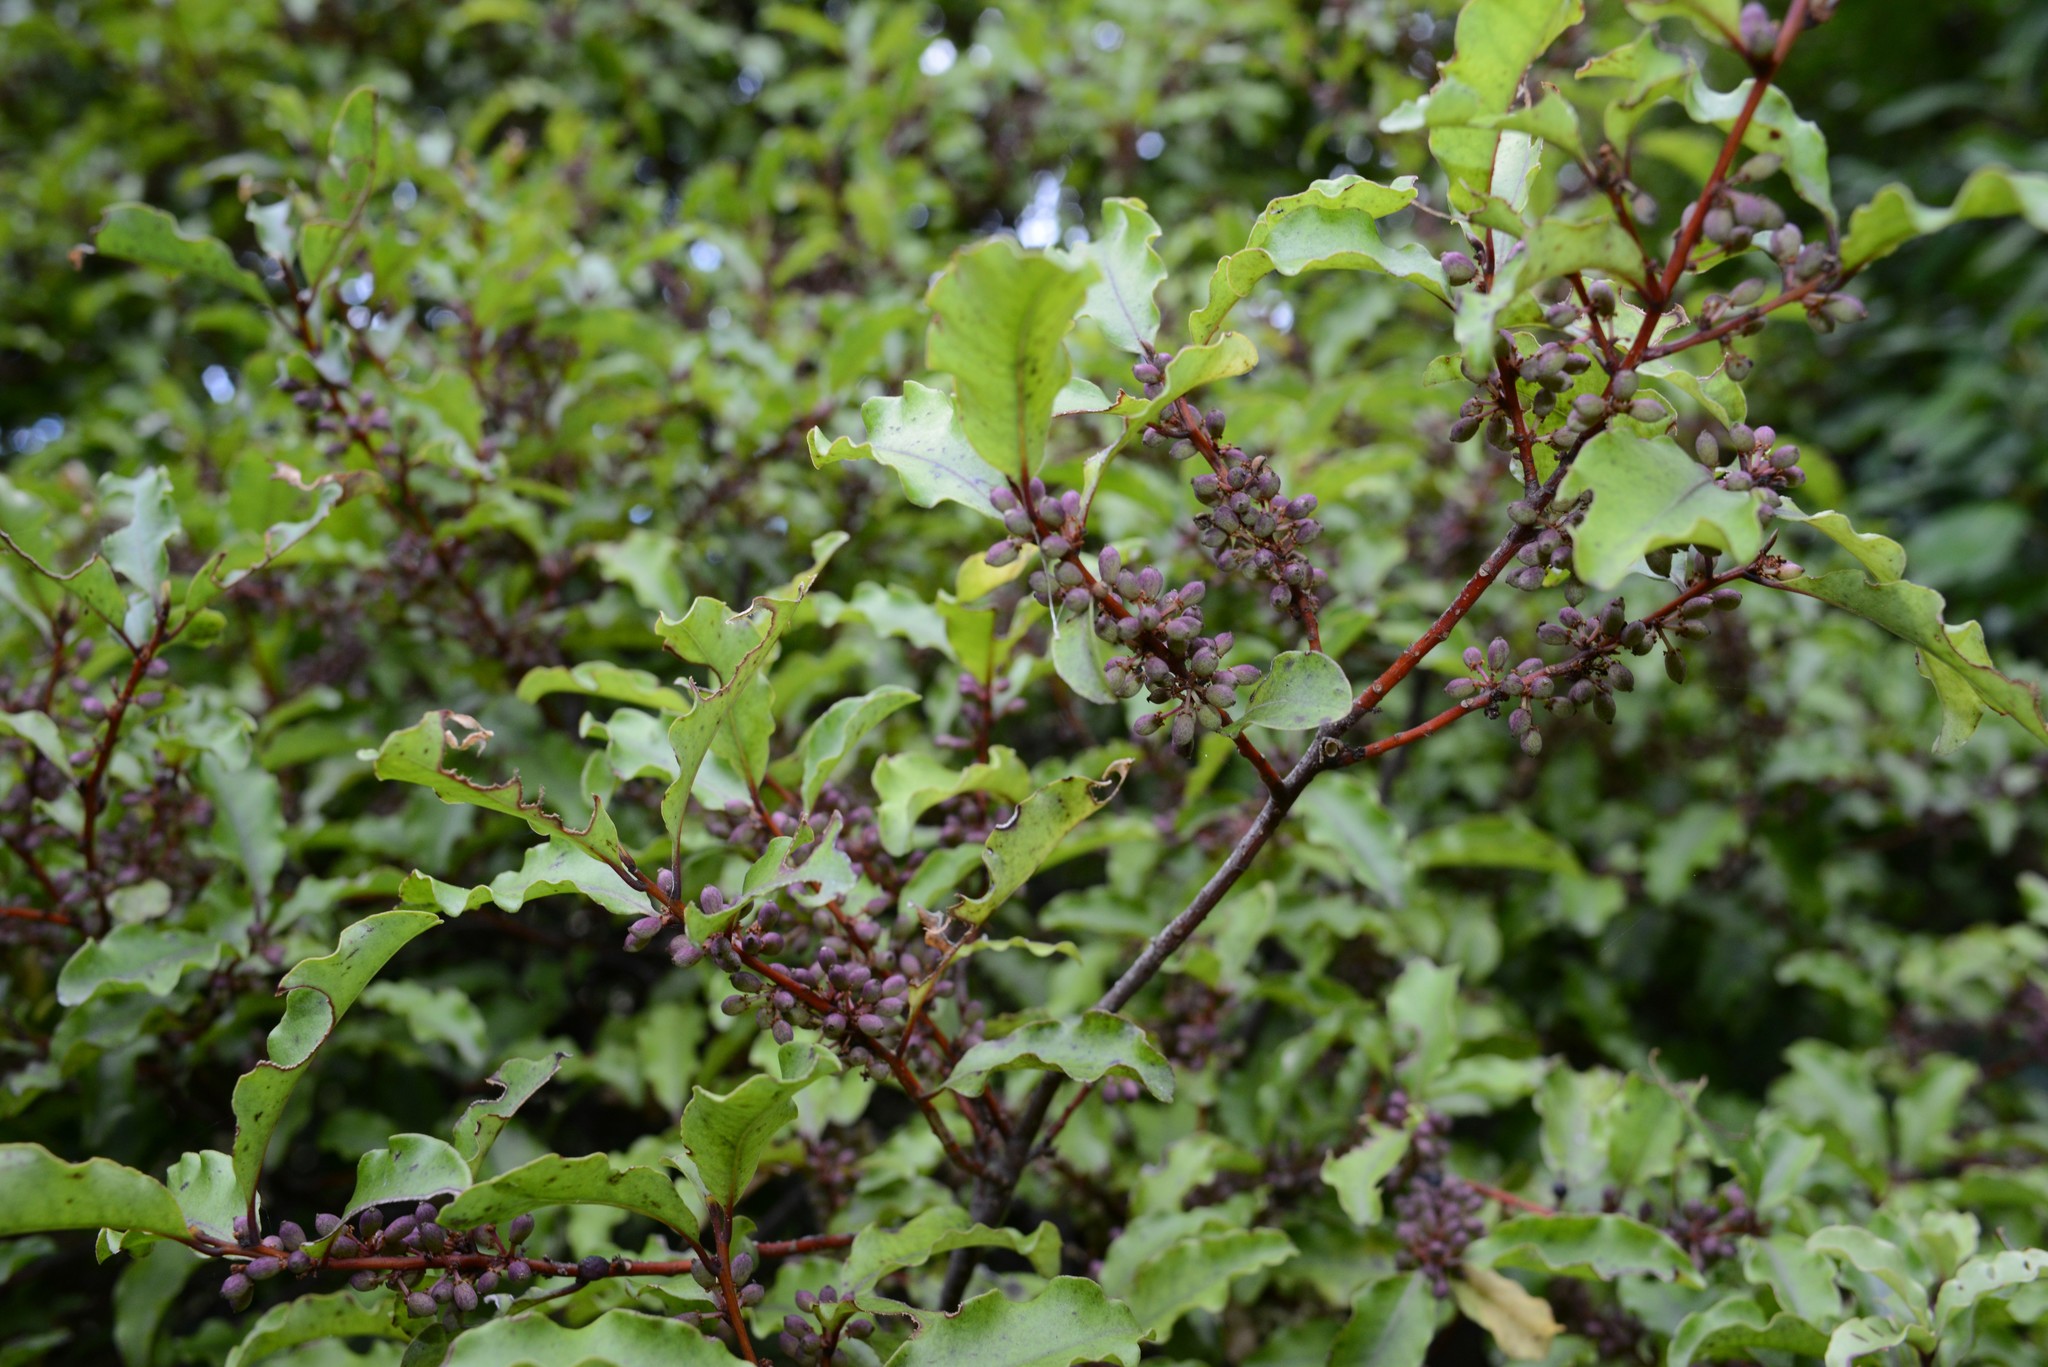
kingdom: Plantae
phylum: Tracheophyta
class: Magnoliopsida
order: Ericales
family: Primulaceae
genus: Myrsine
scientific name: Myrsine australis
